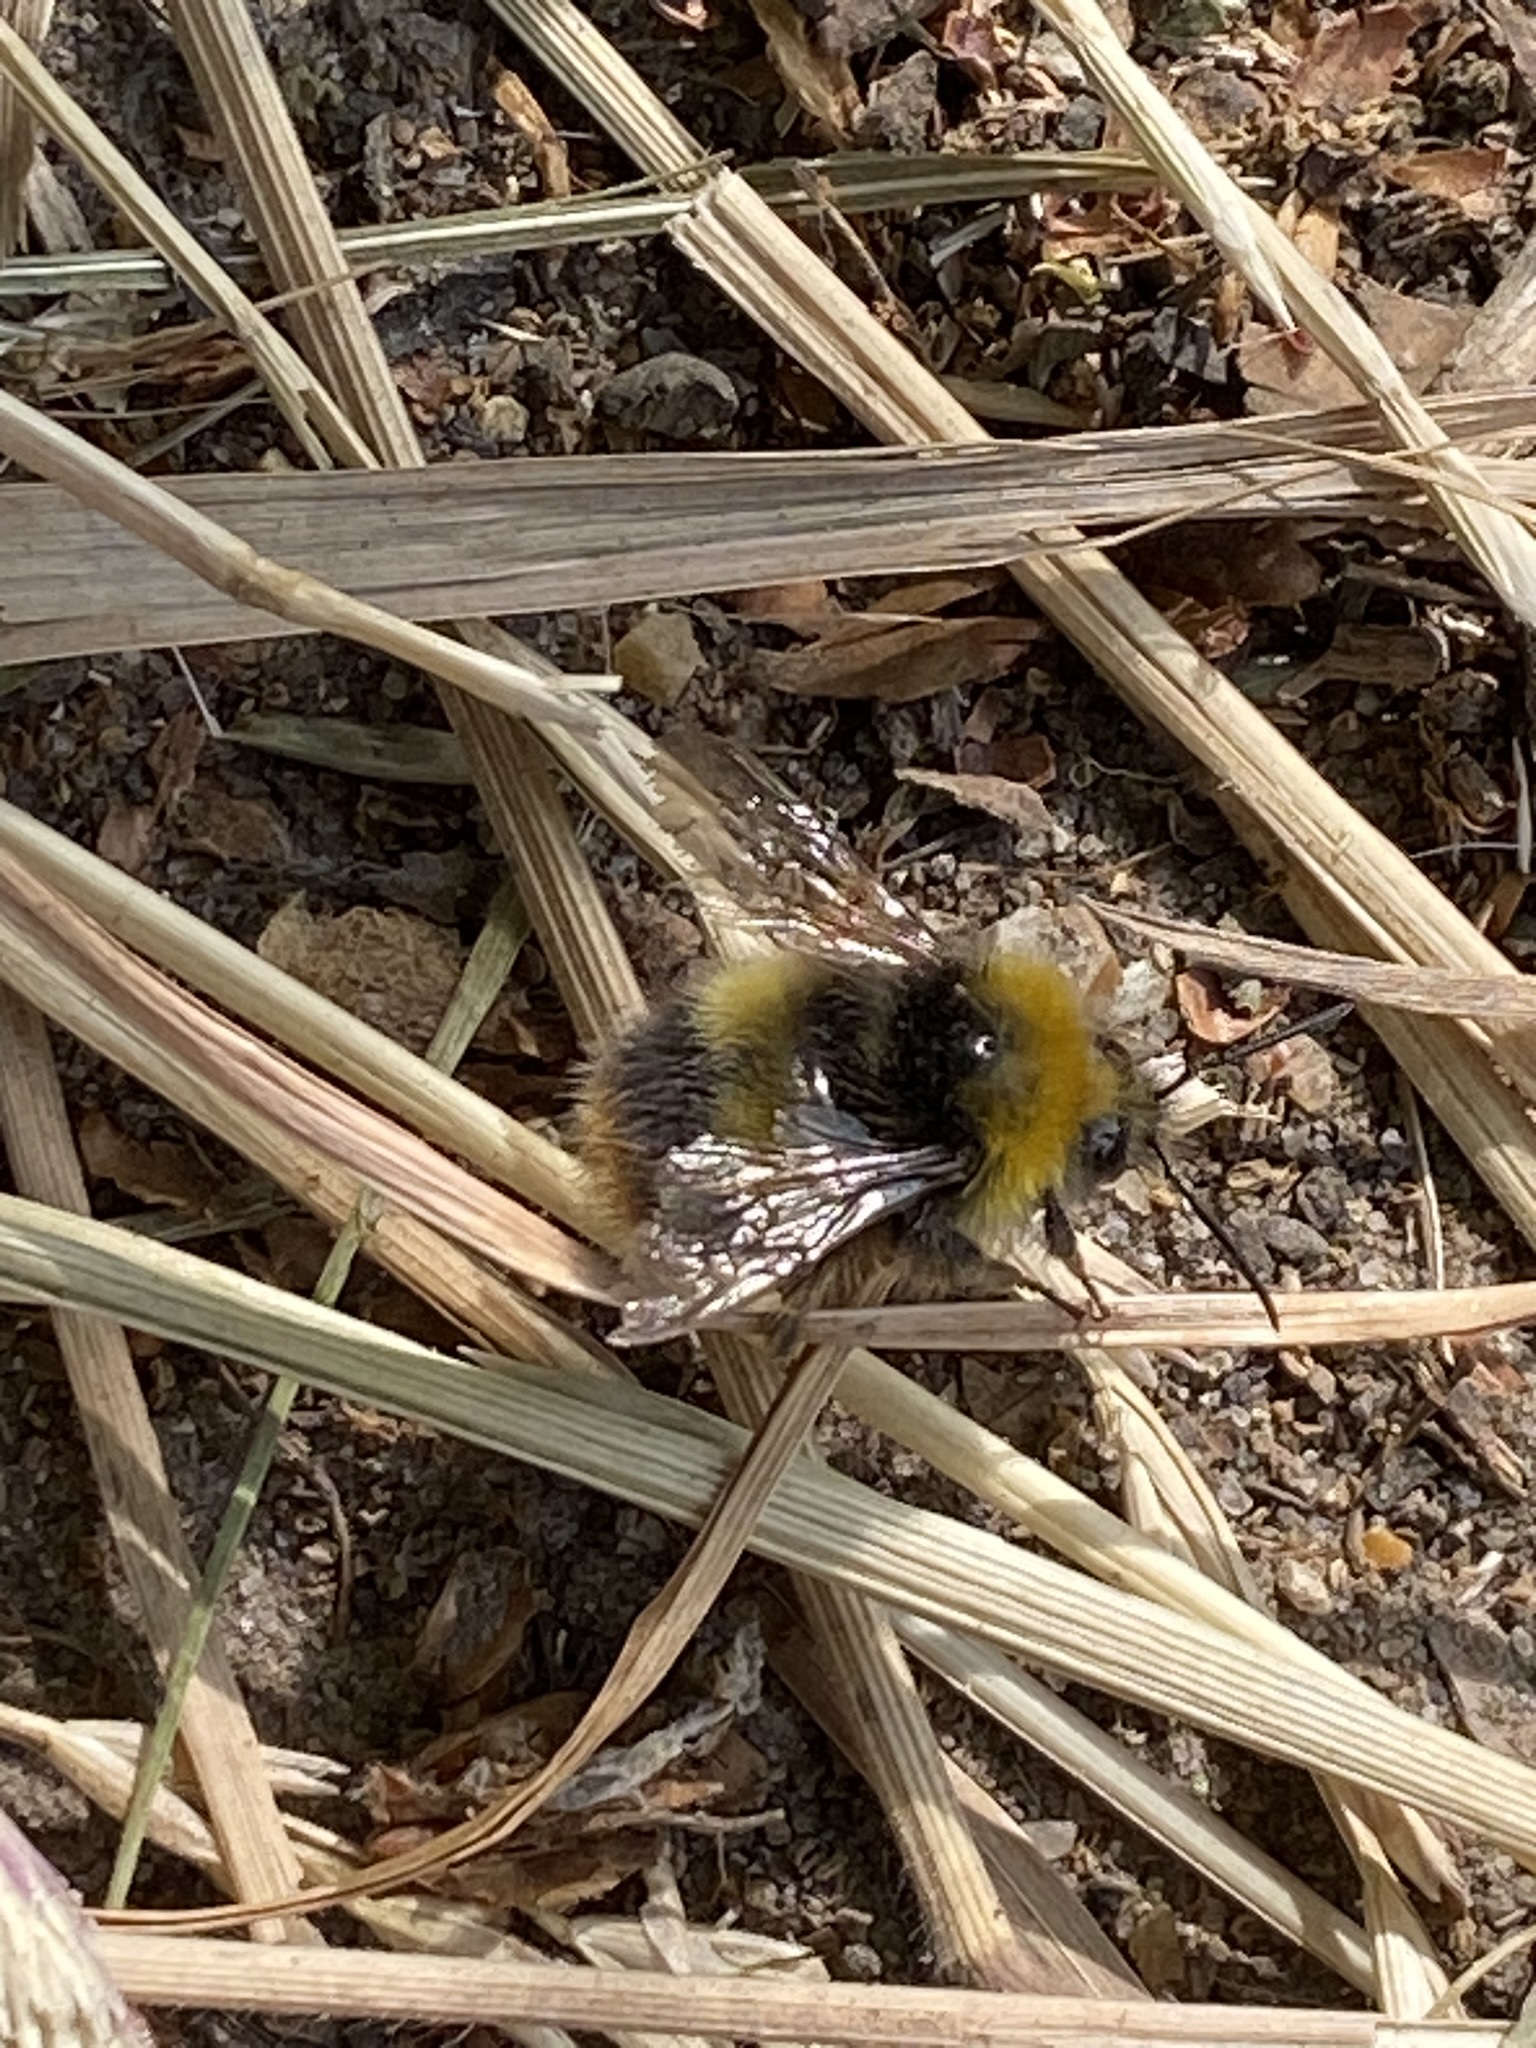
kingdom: Animalia
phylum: Arthropoda
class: Insecta
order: Hymenoptera
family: Apidae
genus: Bombus
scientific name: Bombus pratorum
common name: Early humble-bee
